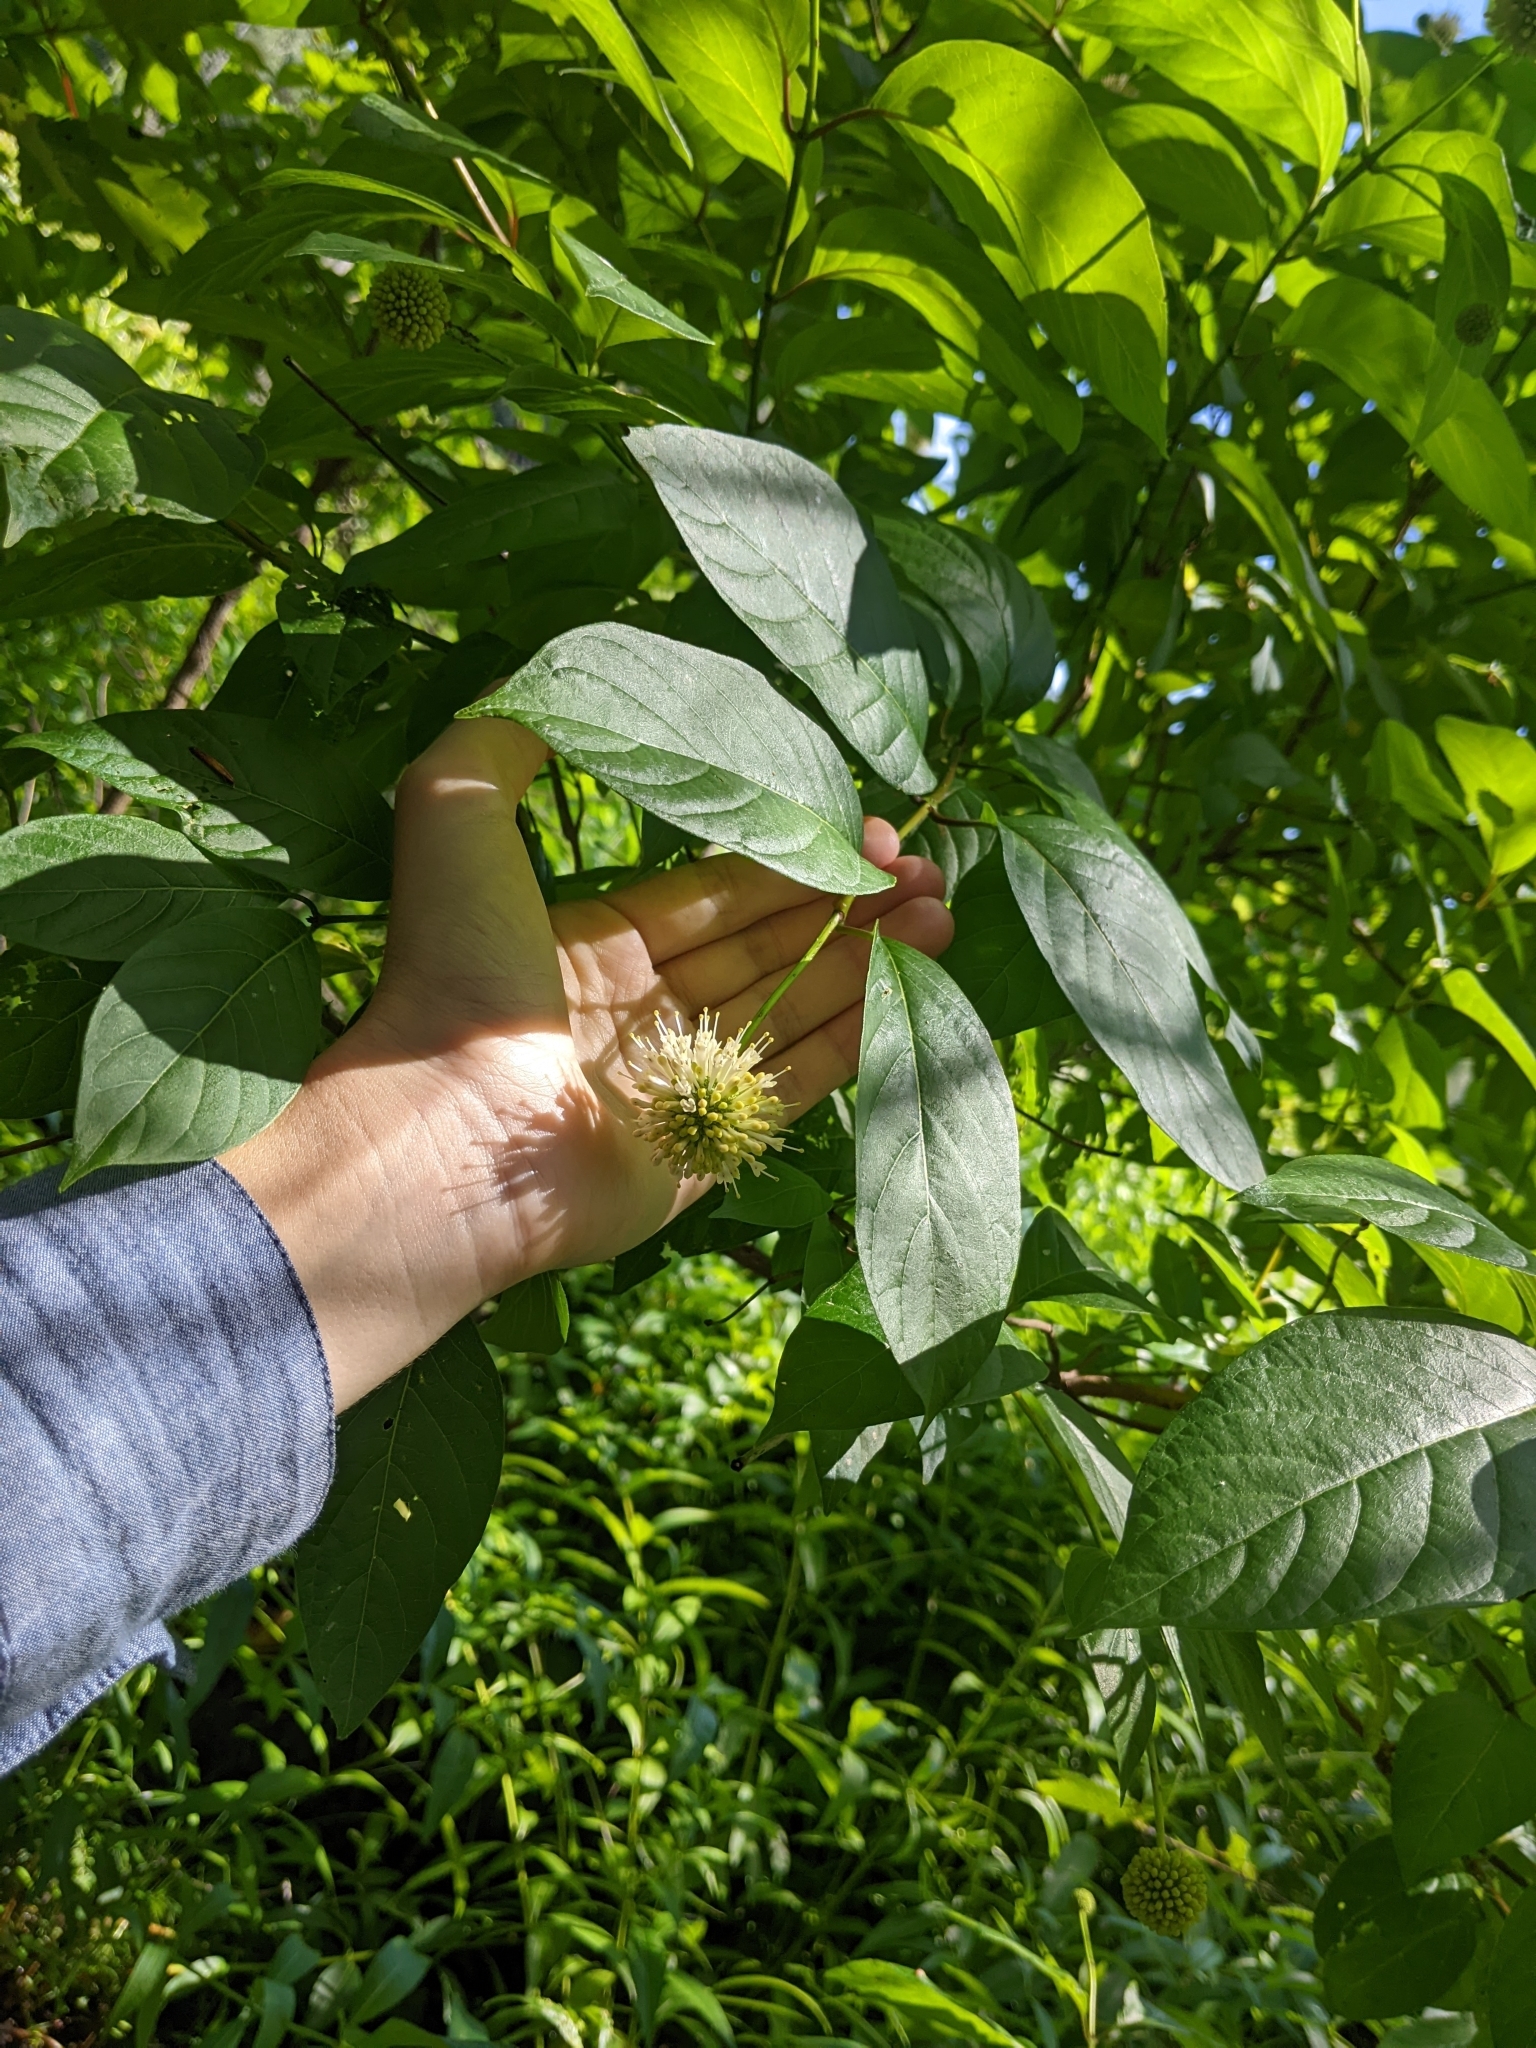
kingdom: Plantae
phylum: Tracheophyta
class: Magnoliopsida
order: Gentianales
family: Rubiaceae
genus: Cephalanthus
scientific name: Cephalanthus occidentalis
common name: Button-willow
